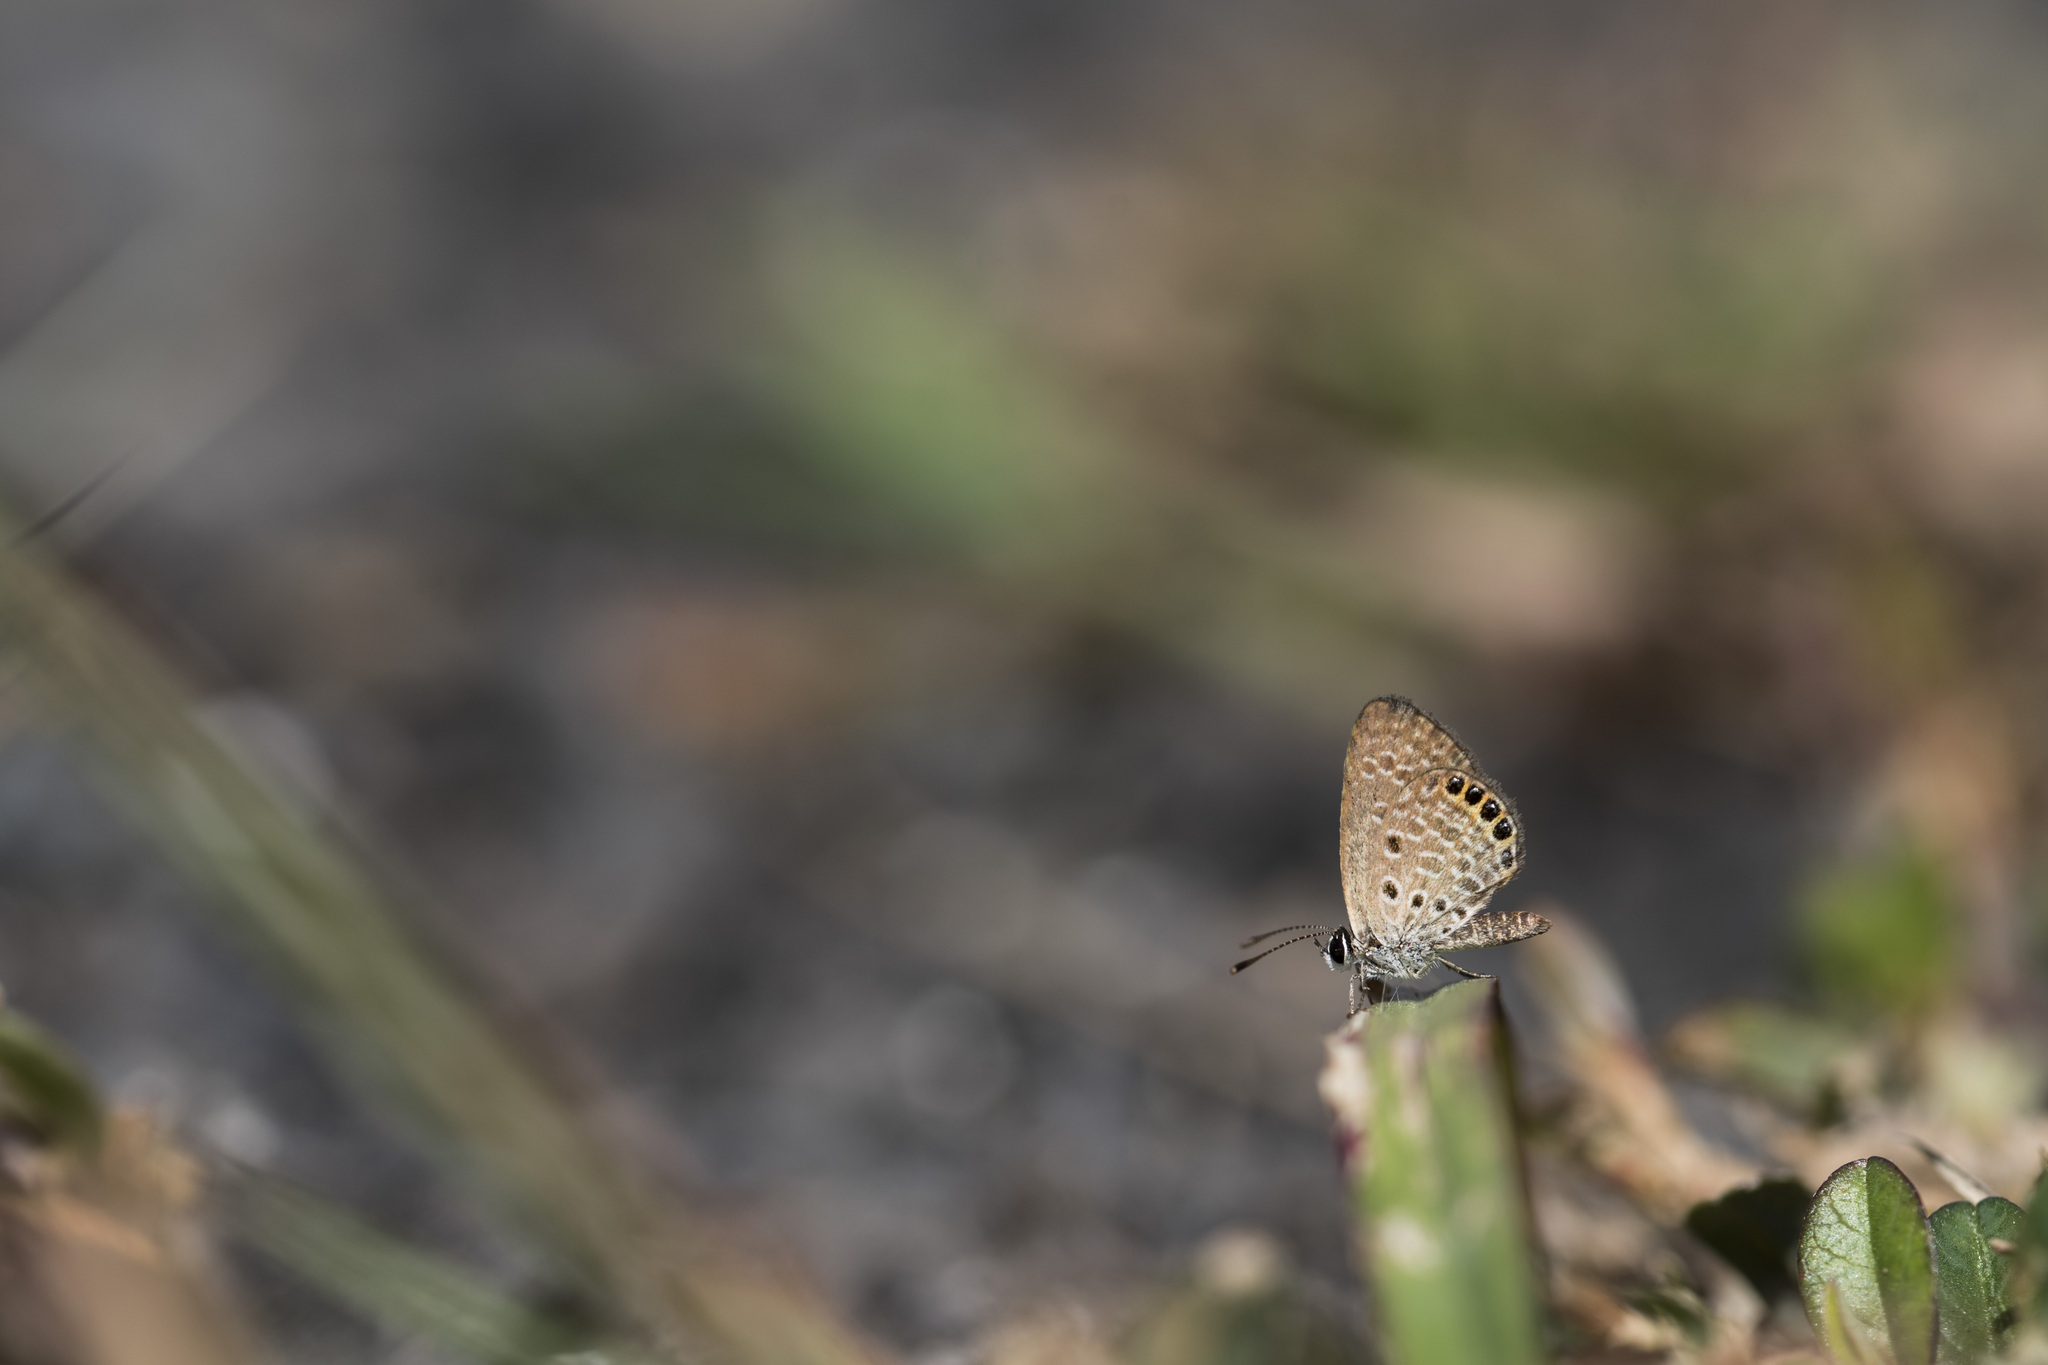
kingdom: Animalia
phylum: Arthropoda
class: Insecta
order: Lepidoptera
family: Lycaenidae
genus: Freyeria
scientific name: Freyeria putli
